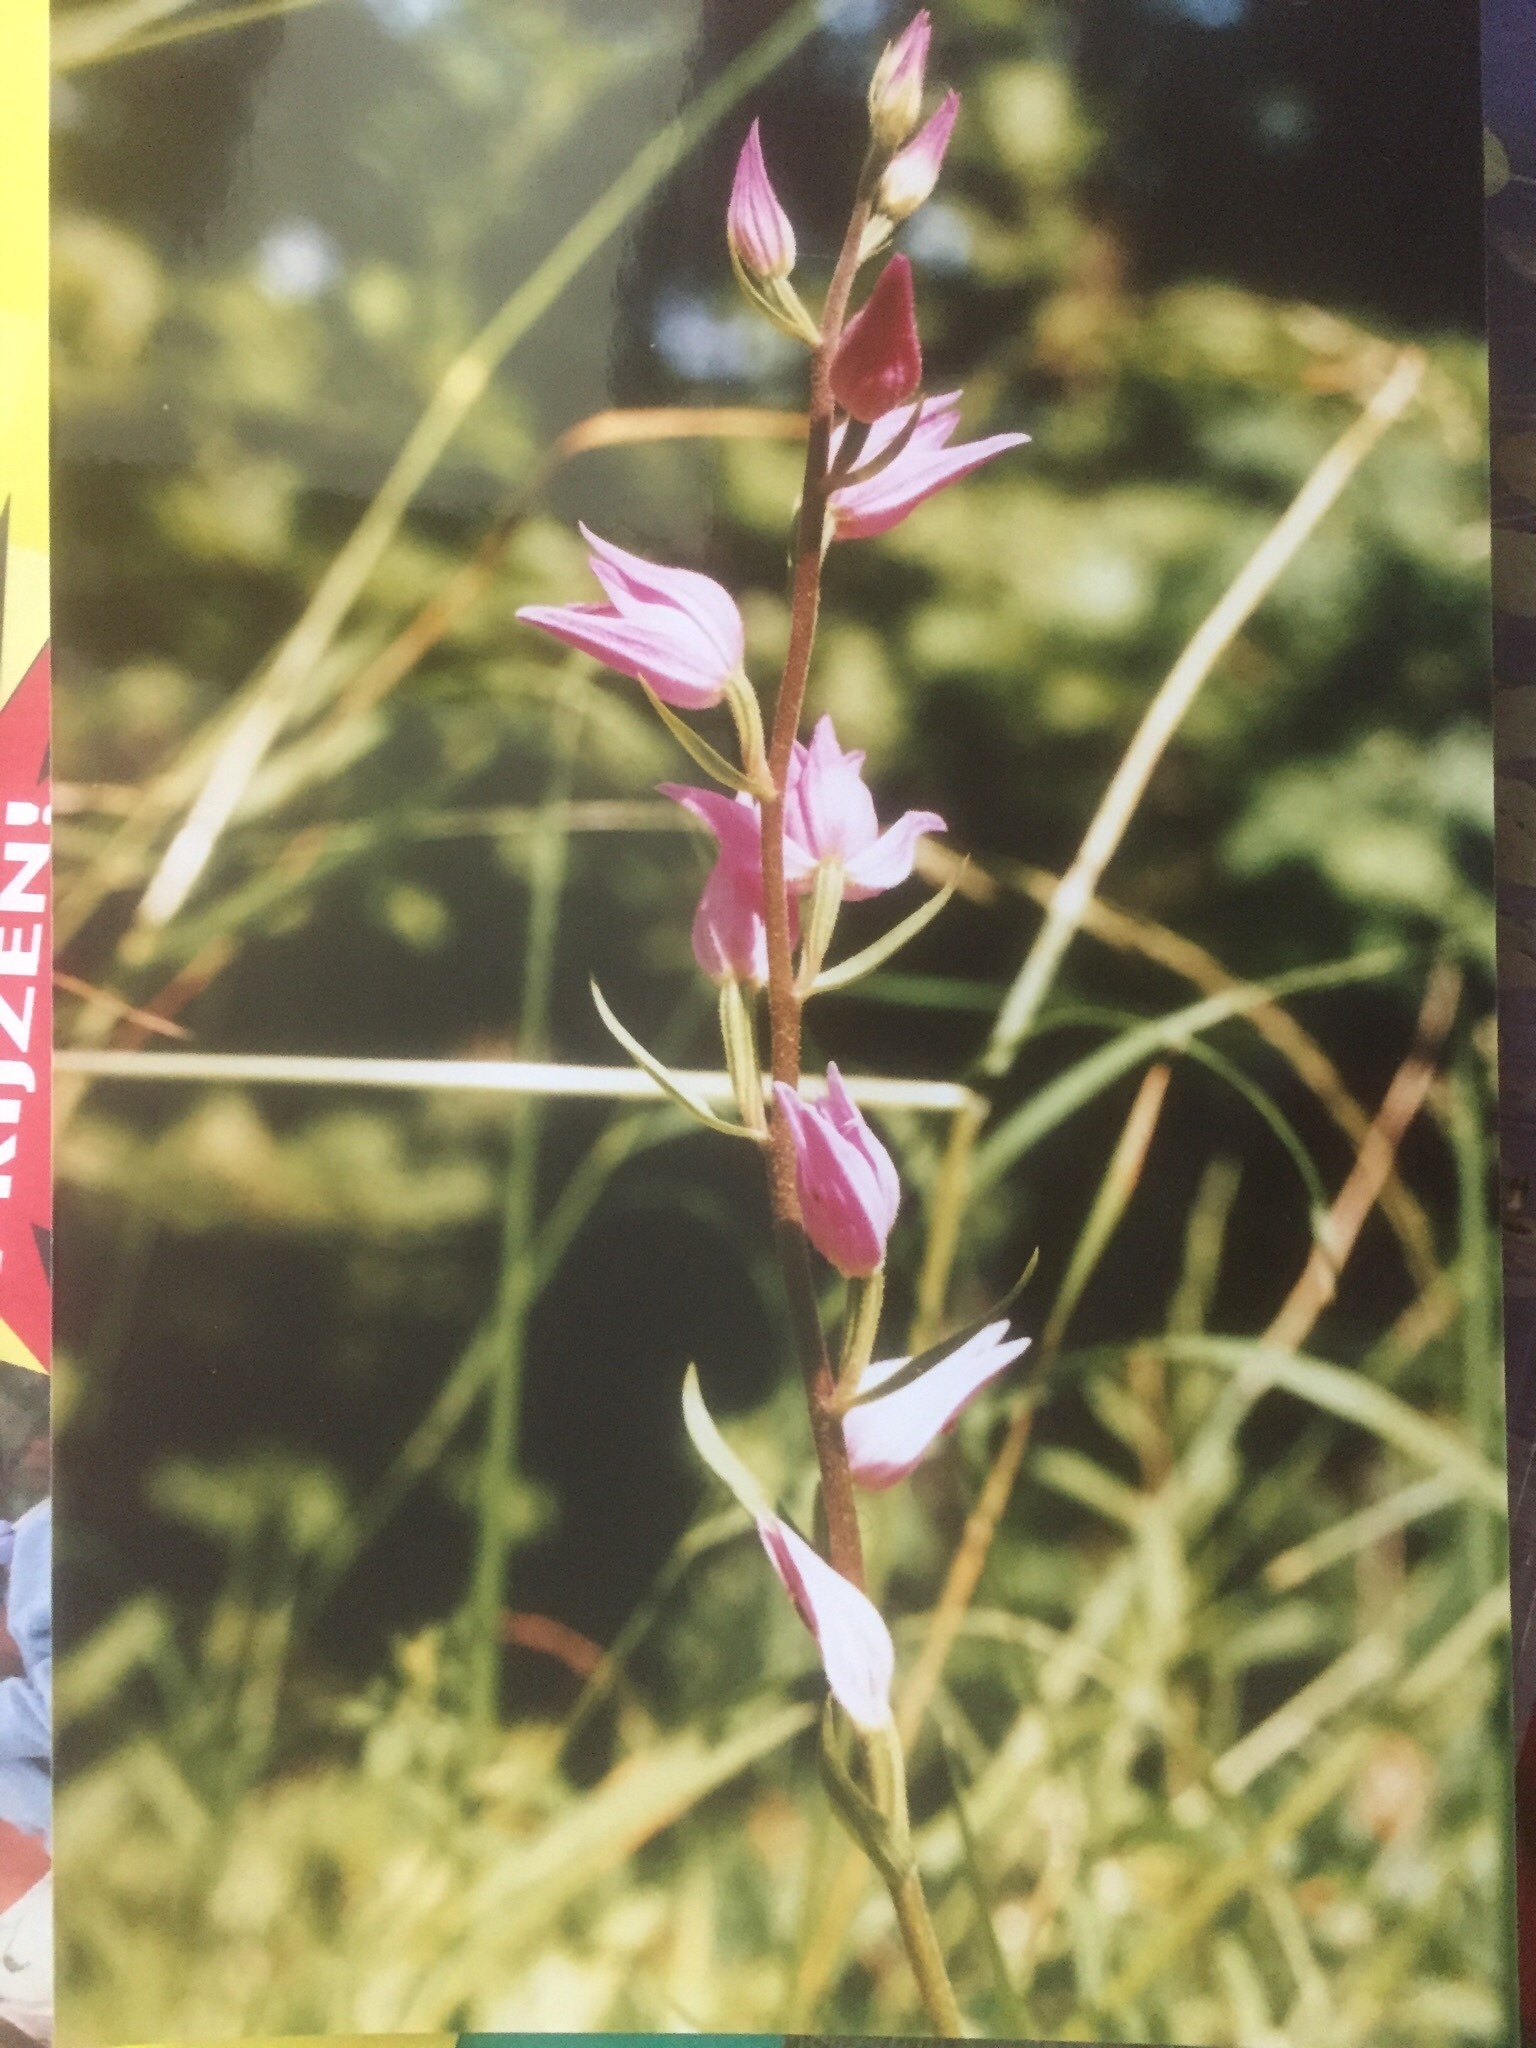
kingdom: Plantae
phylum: Tracheophyta
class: Liliopsida
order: Asparagales
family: Orchidaceae
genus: Cephalanthera
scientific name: Cephalanthera rubra
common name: Red helleborine
